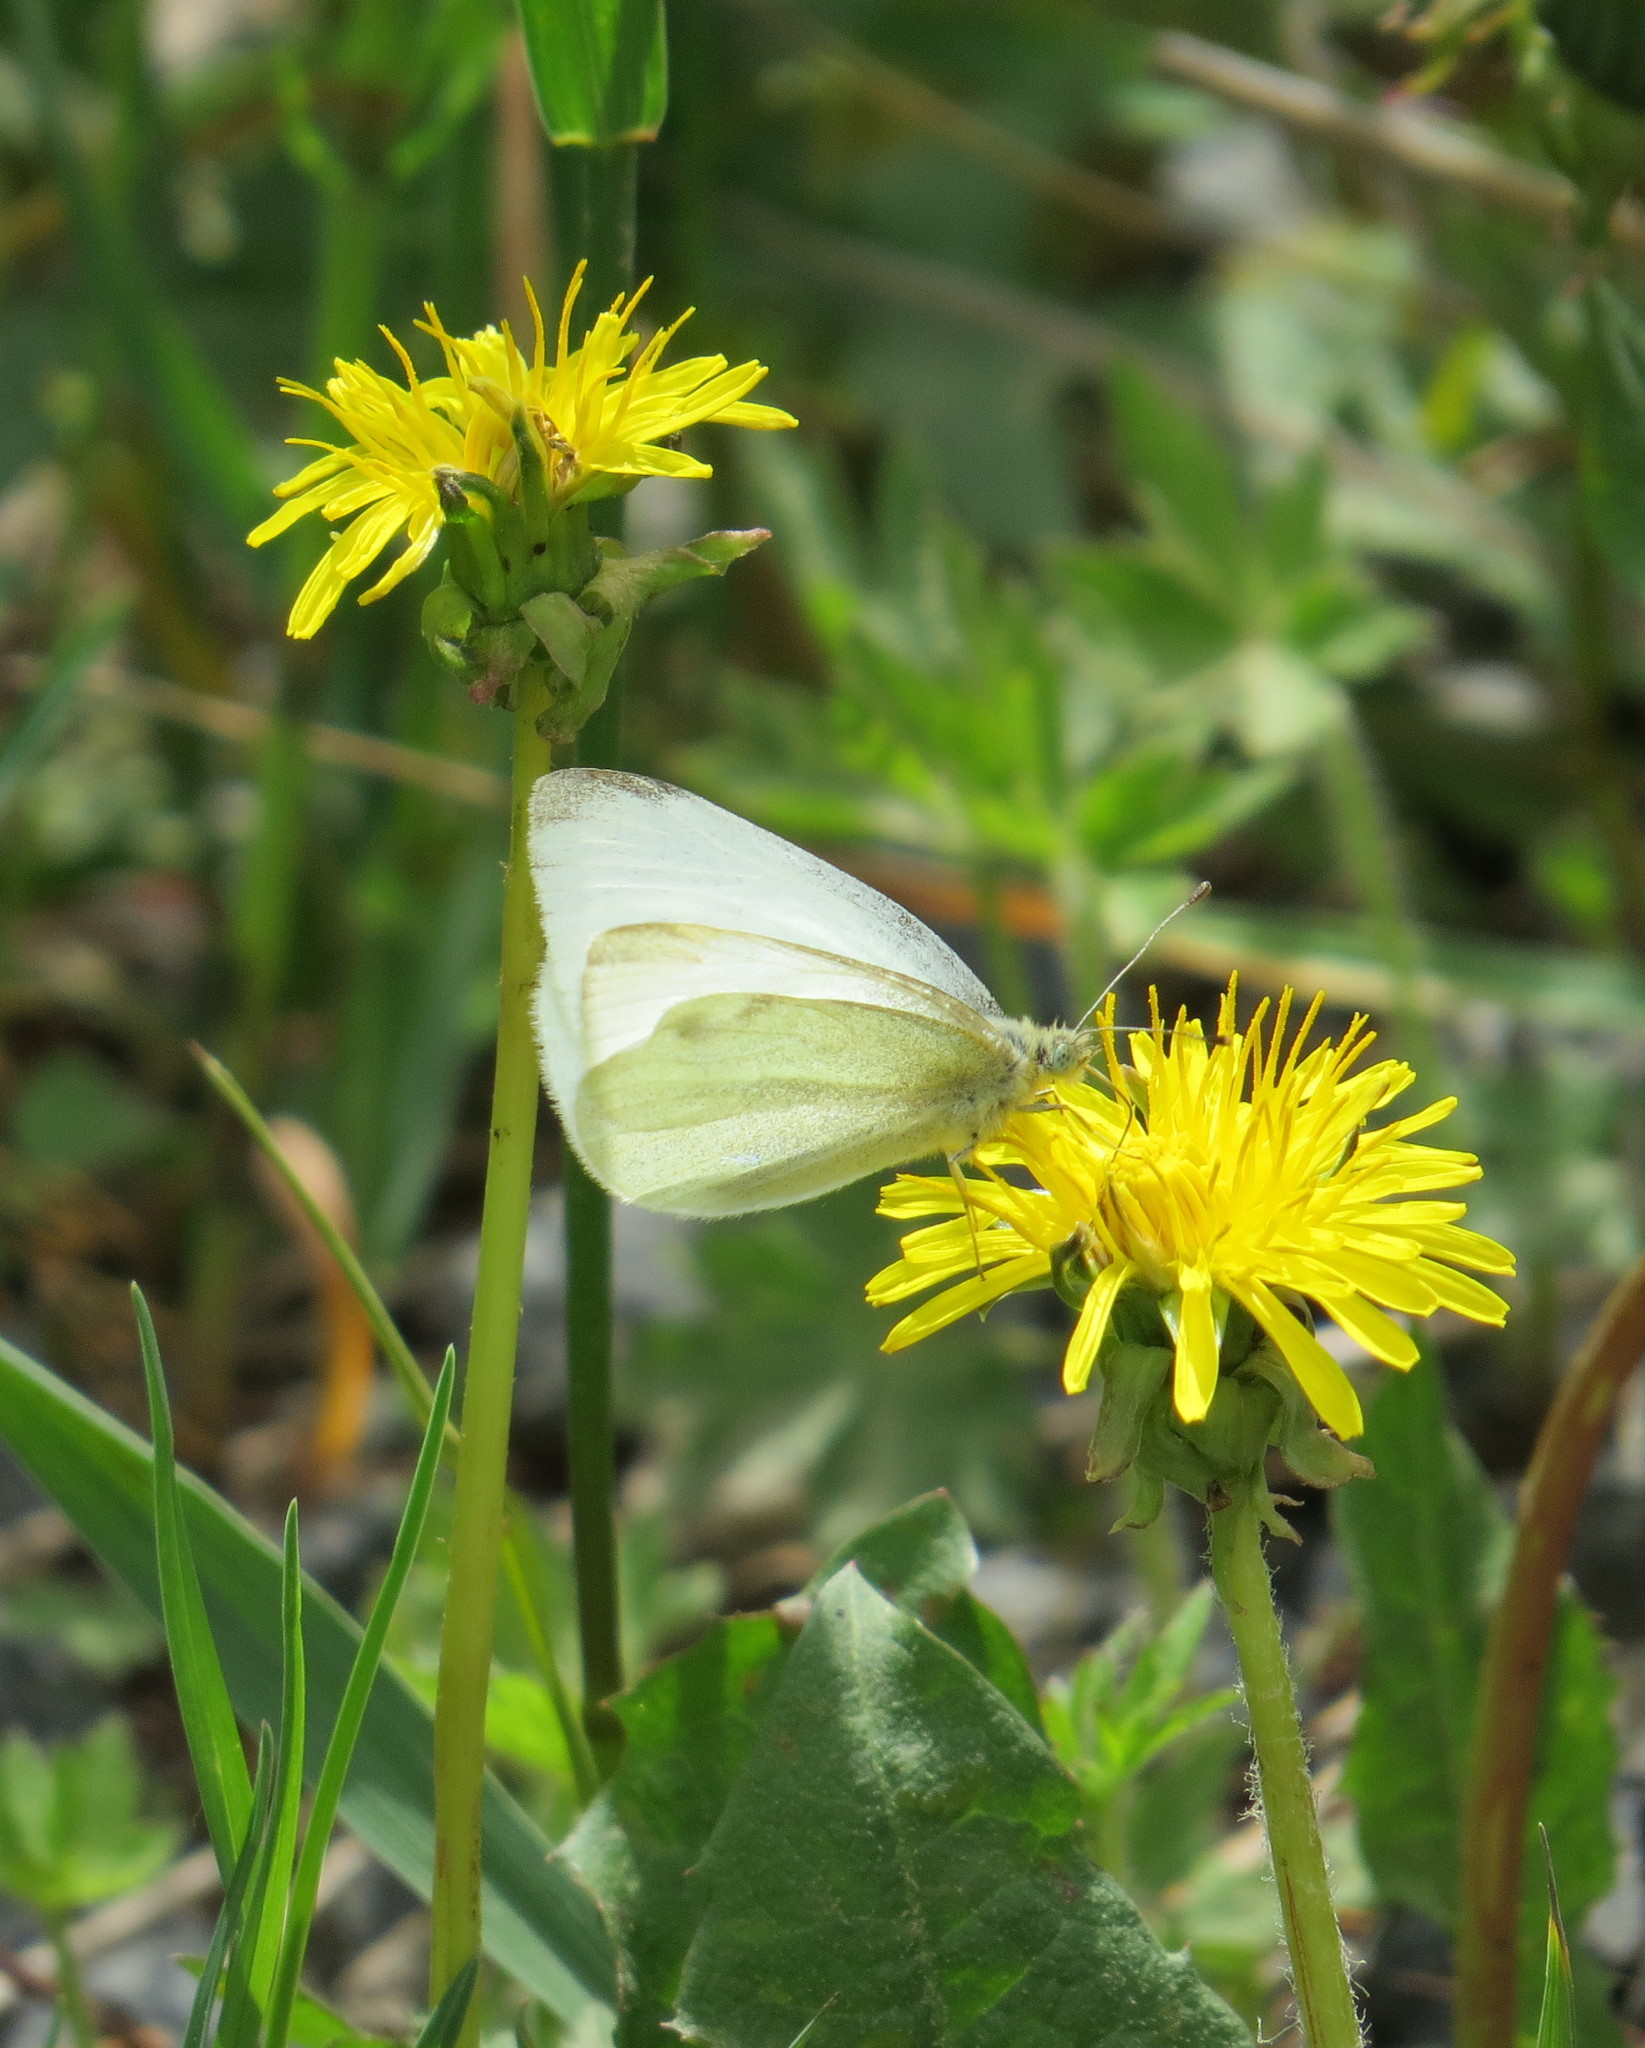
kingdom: Animalia
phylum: Arthropoda
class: Insecta
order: Lepidoptera
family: Pieridae
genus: Pieris
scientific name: Pieris rapae
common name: Small white
